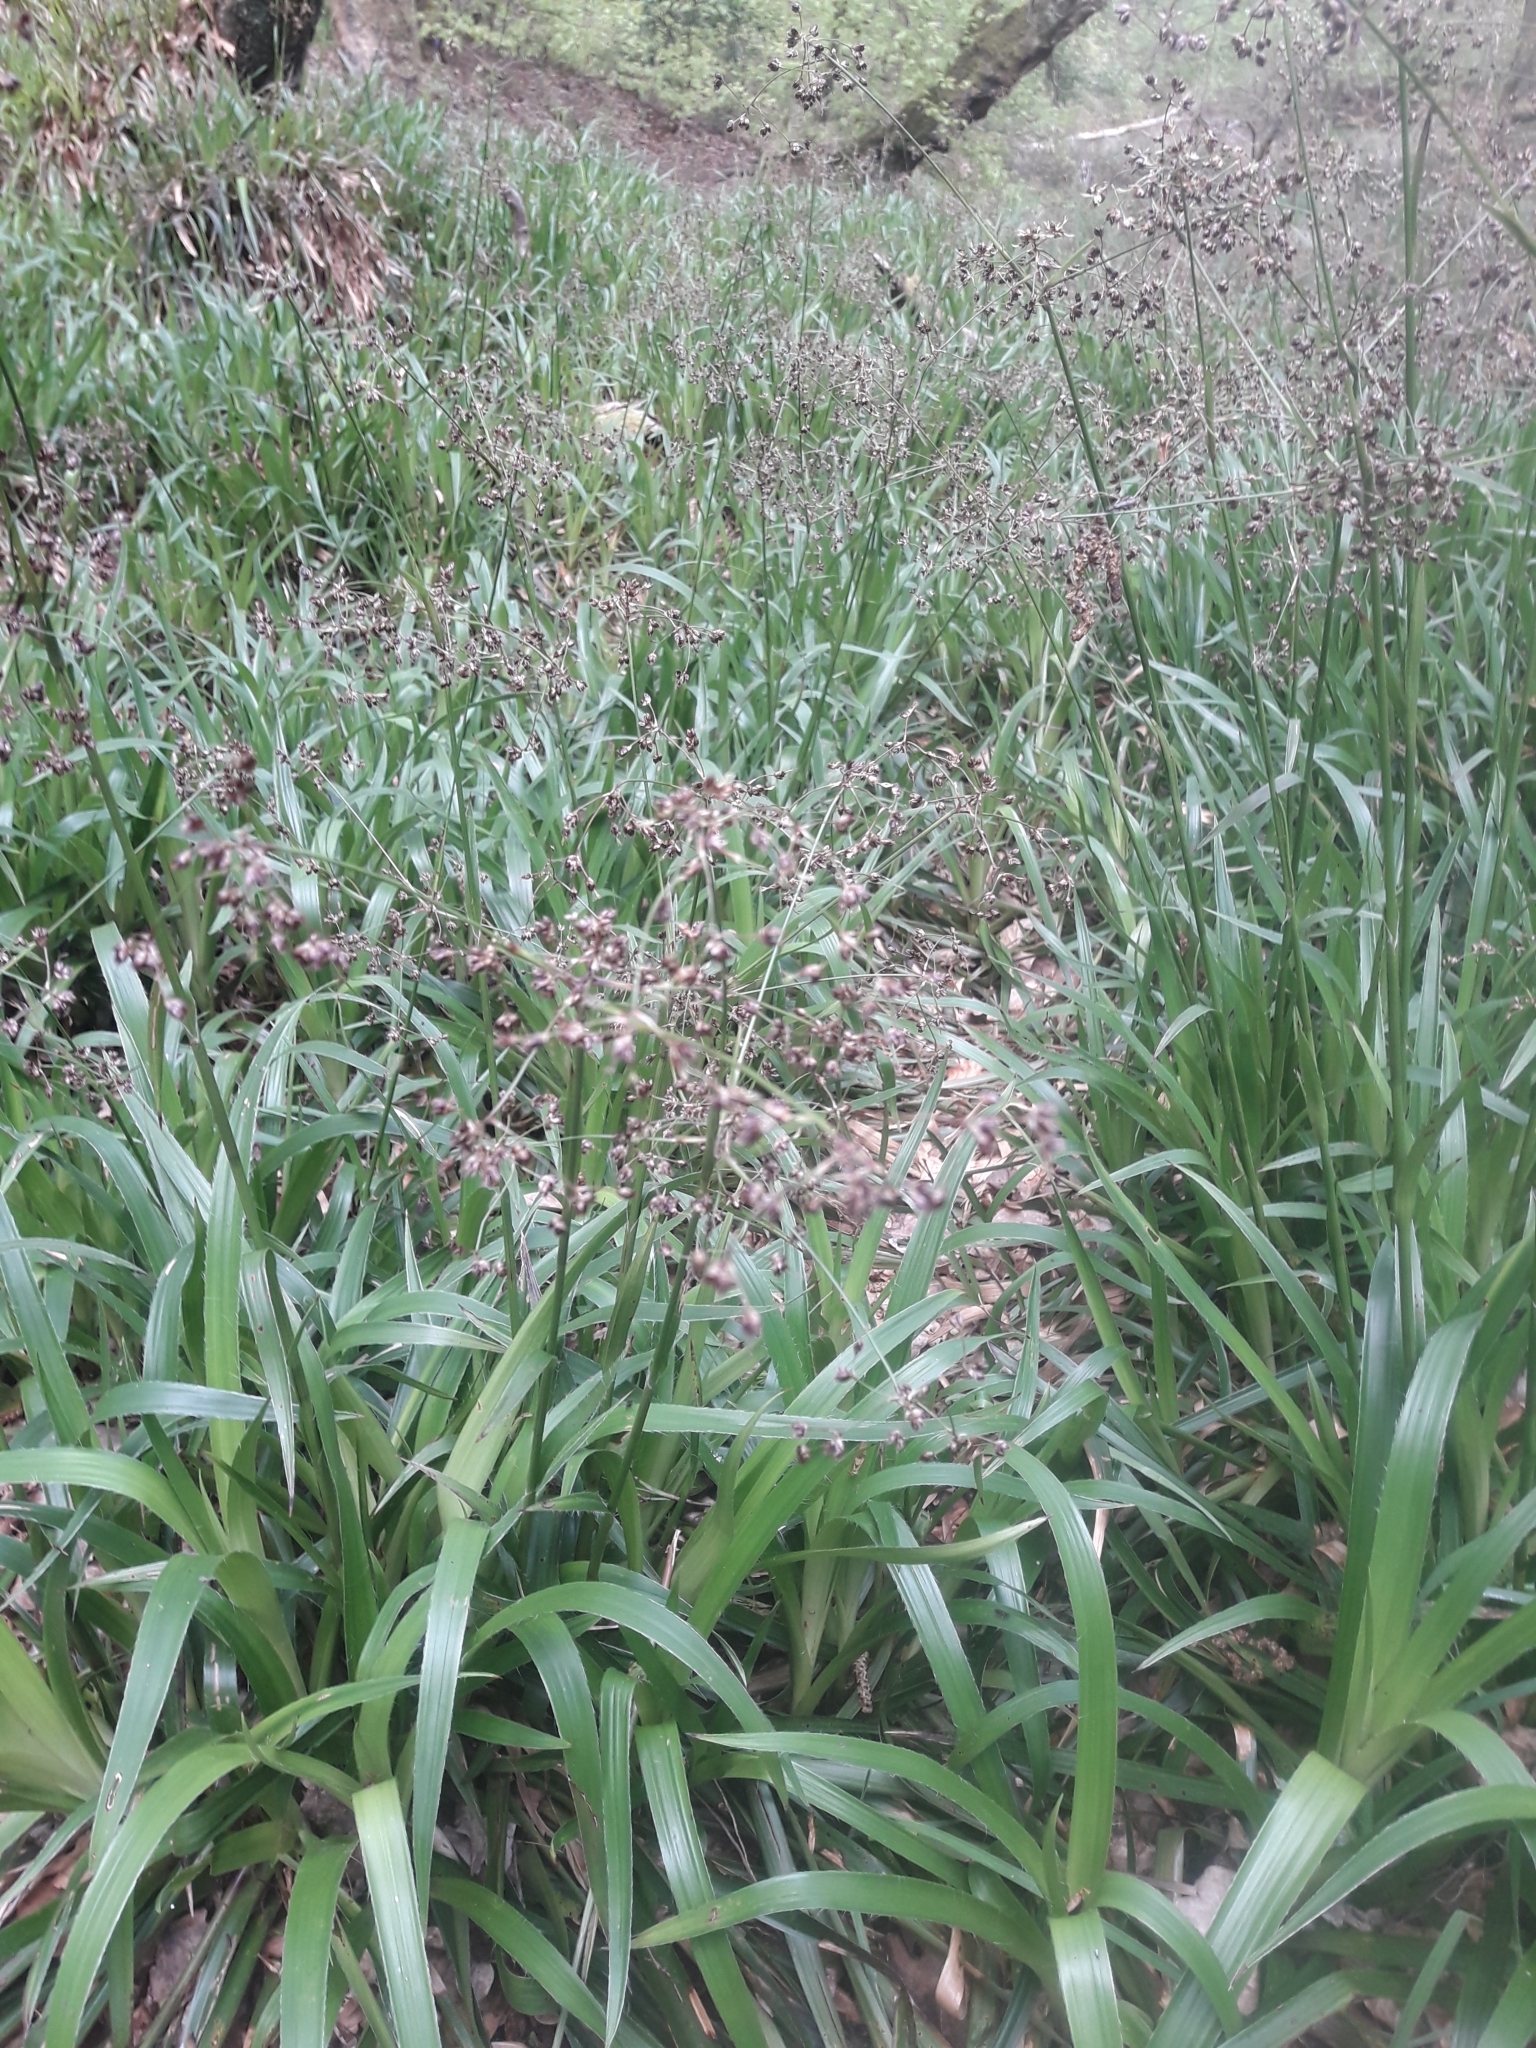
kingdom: Plantae
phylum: Tracheophyta
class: Liliopsida
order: Poales
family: Juncaceae
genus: Luzula
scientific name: Luzula sylvatica
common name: Great wood-rush
